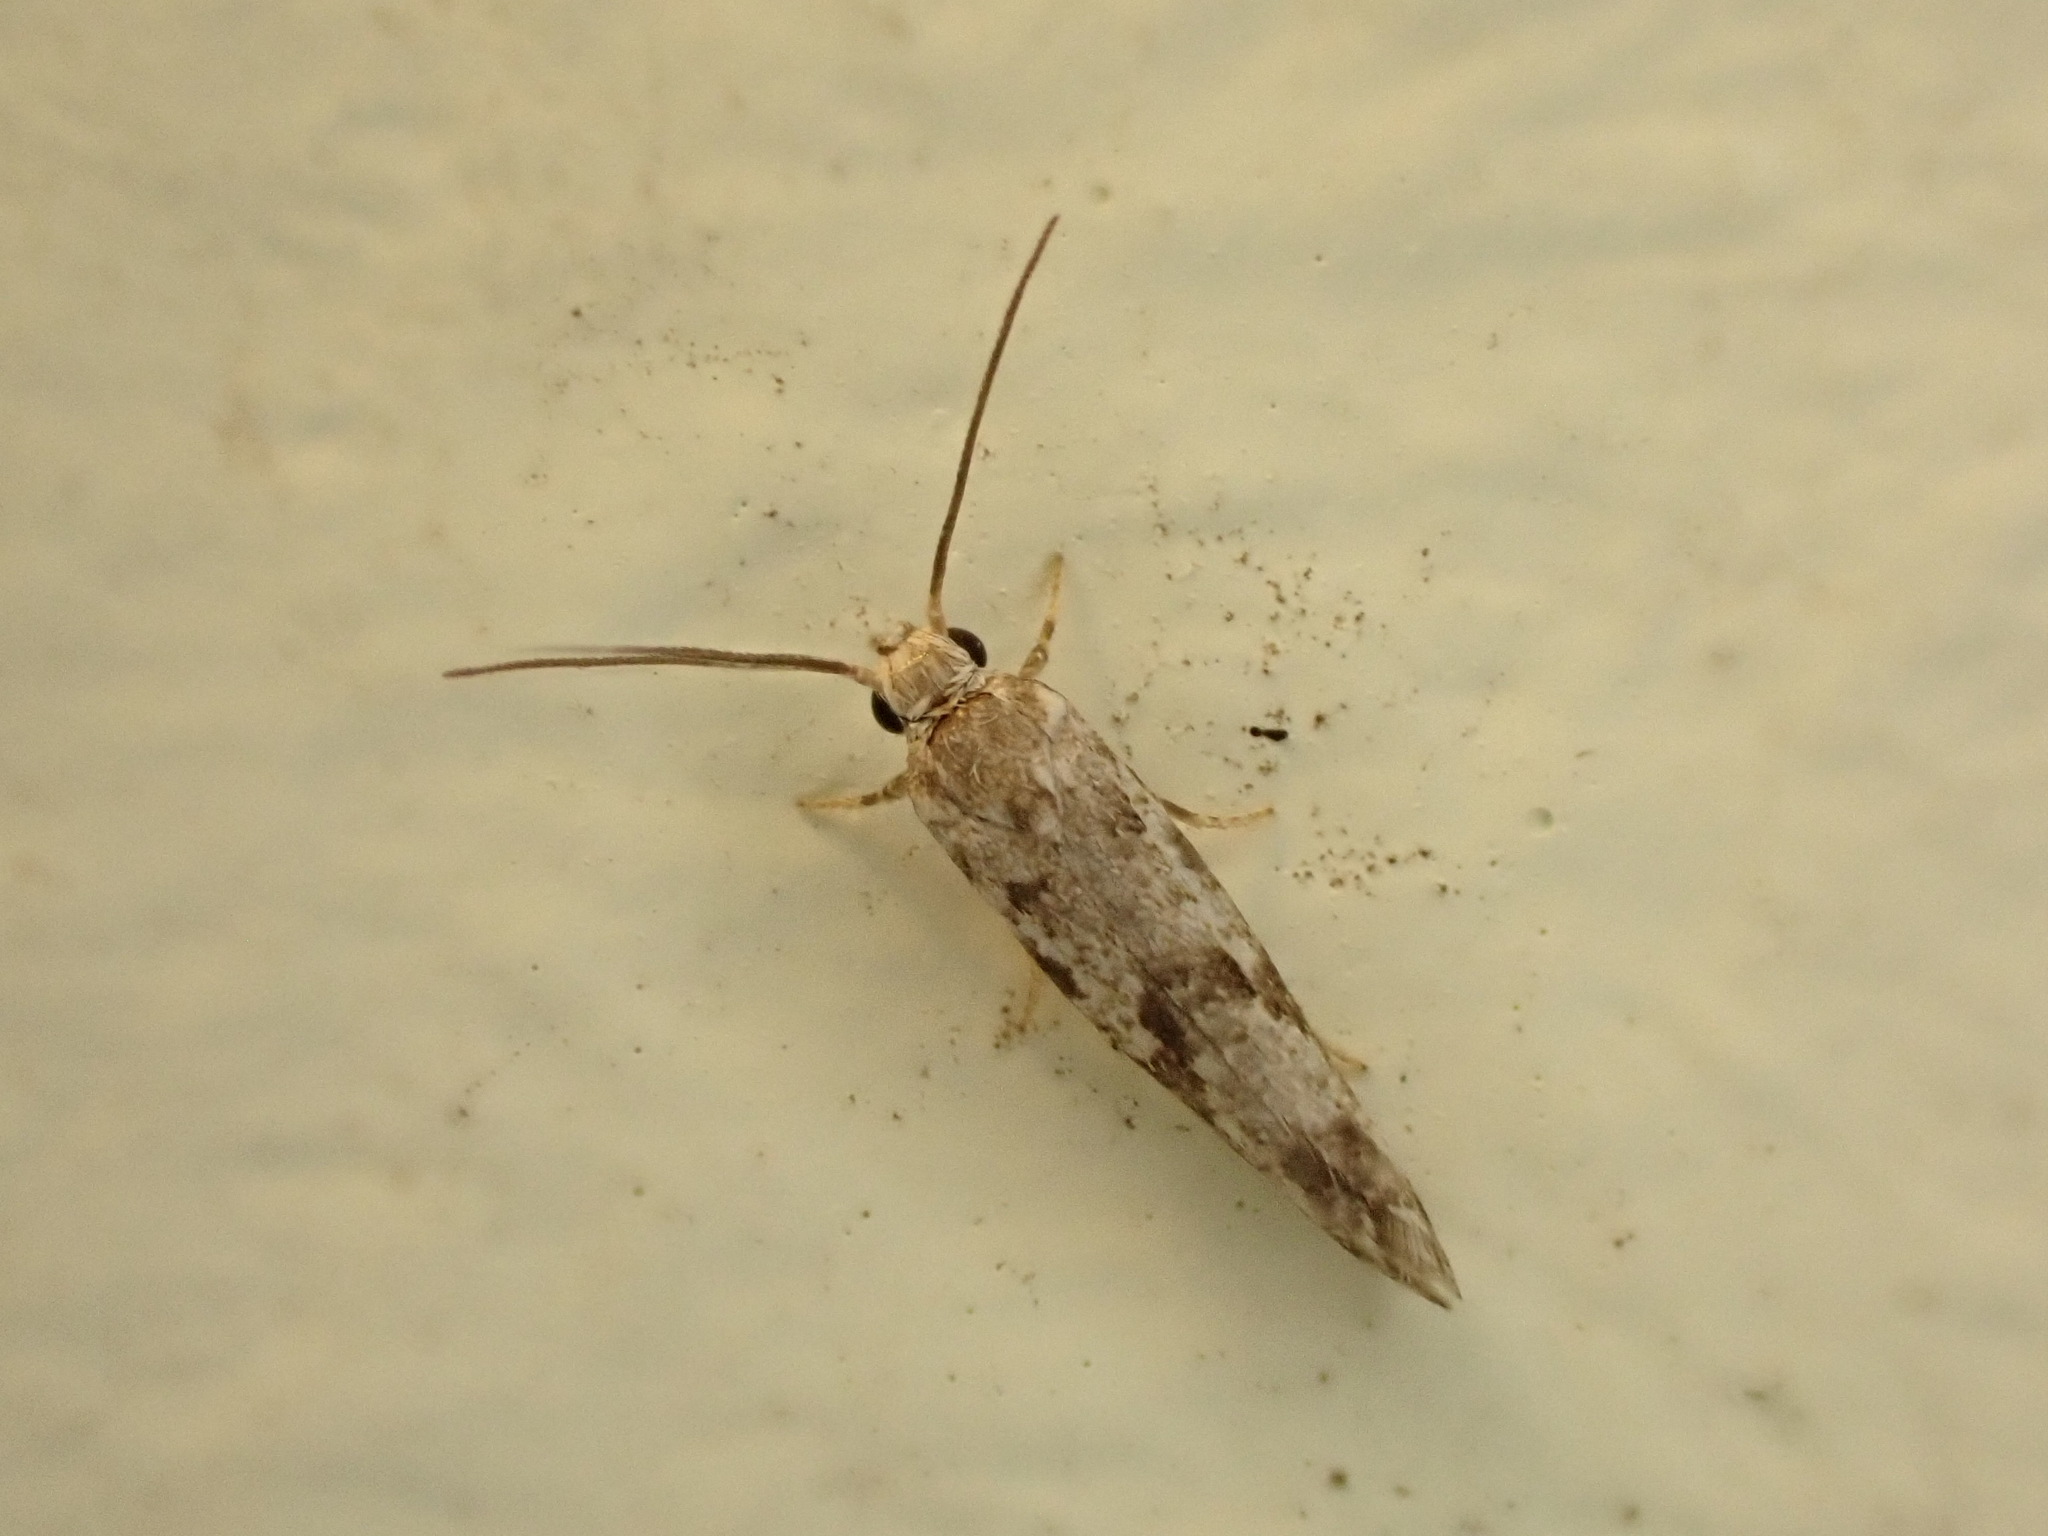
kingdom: Animalia
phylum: Arthropoda
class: Insecta
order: Lepidoptera
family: Praydidae
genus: Prays
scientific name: Prays nephelomima
